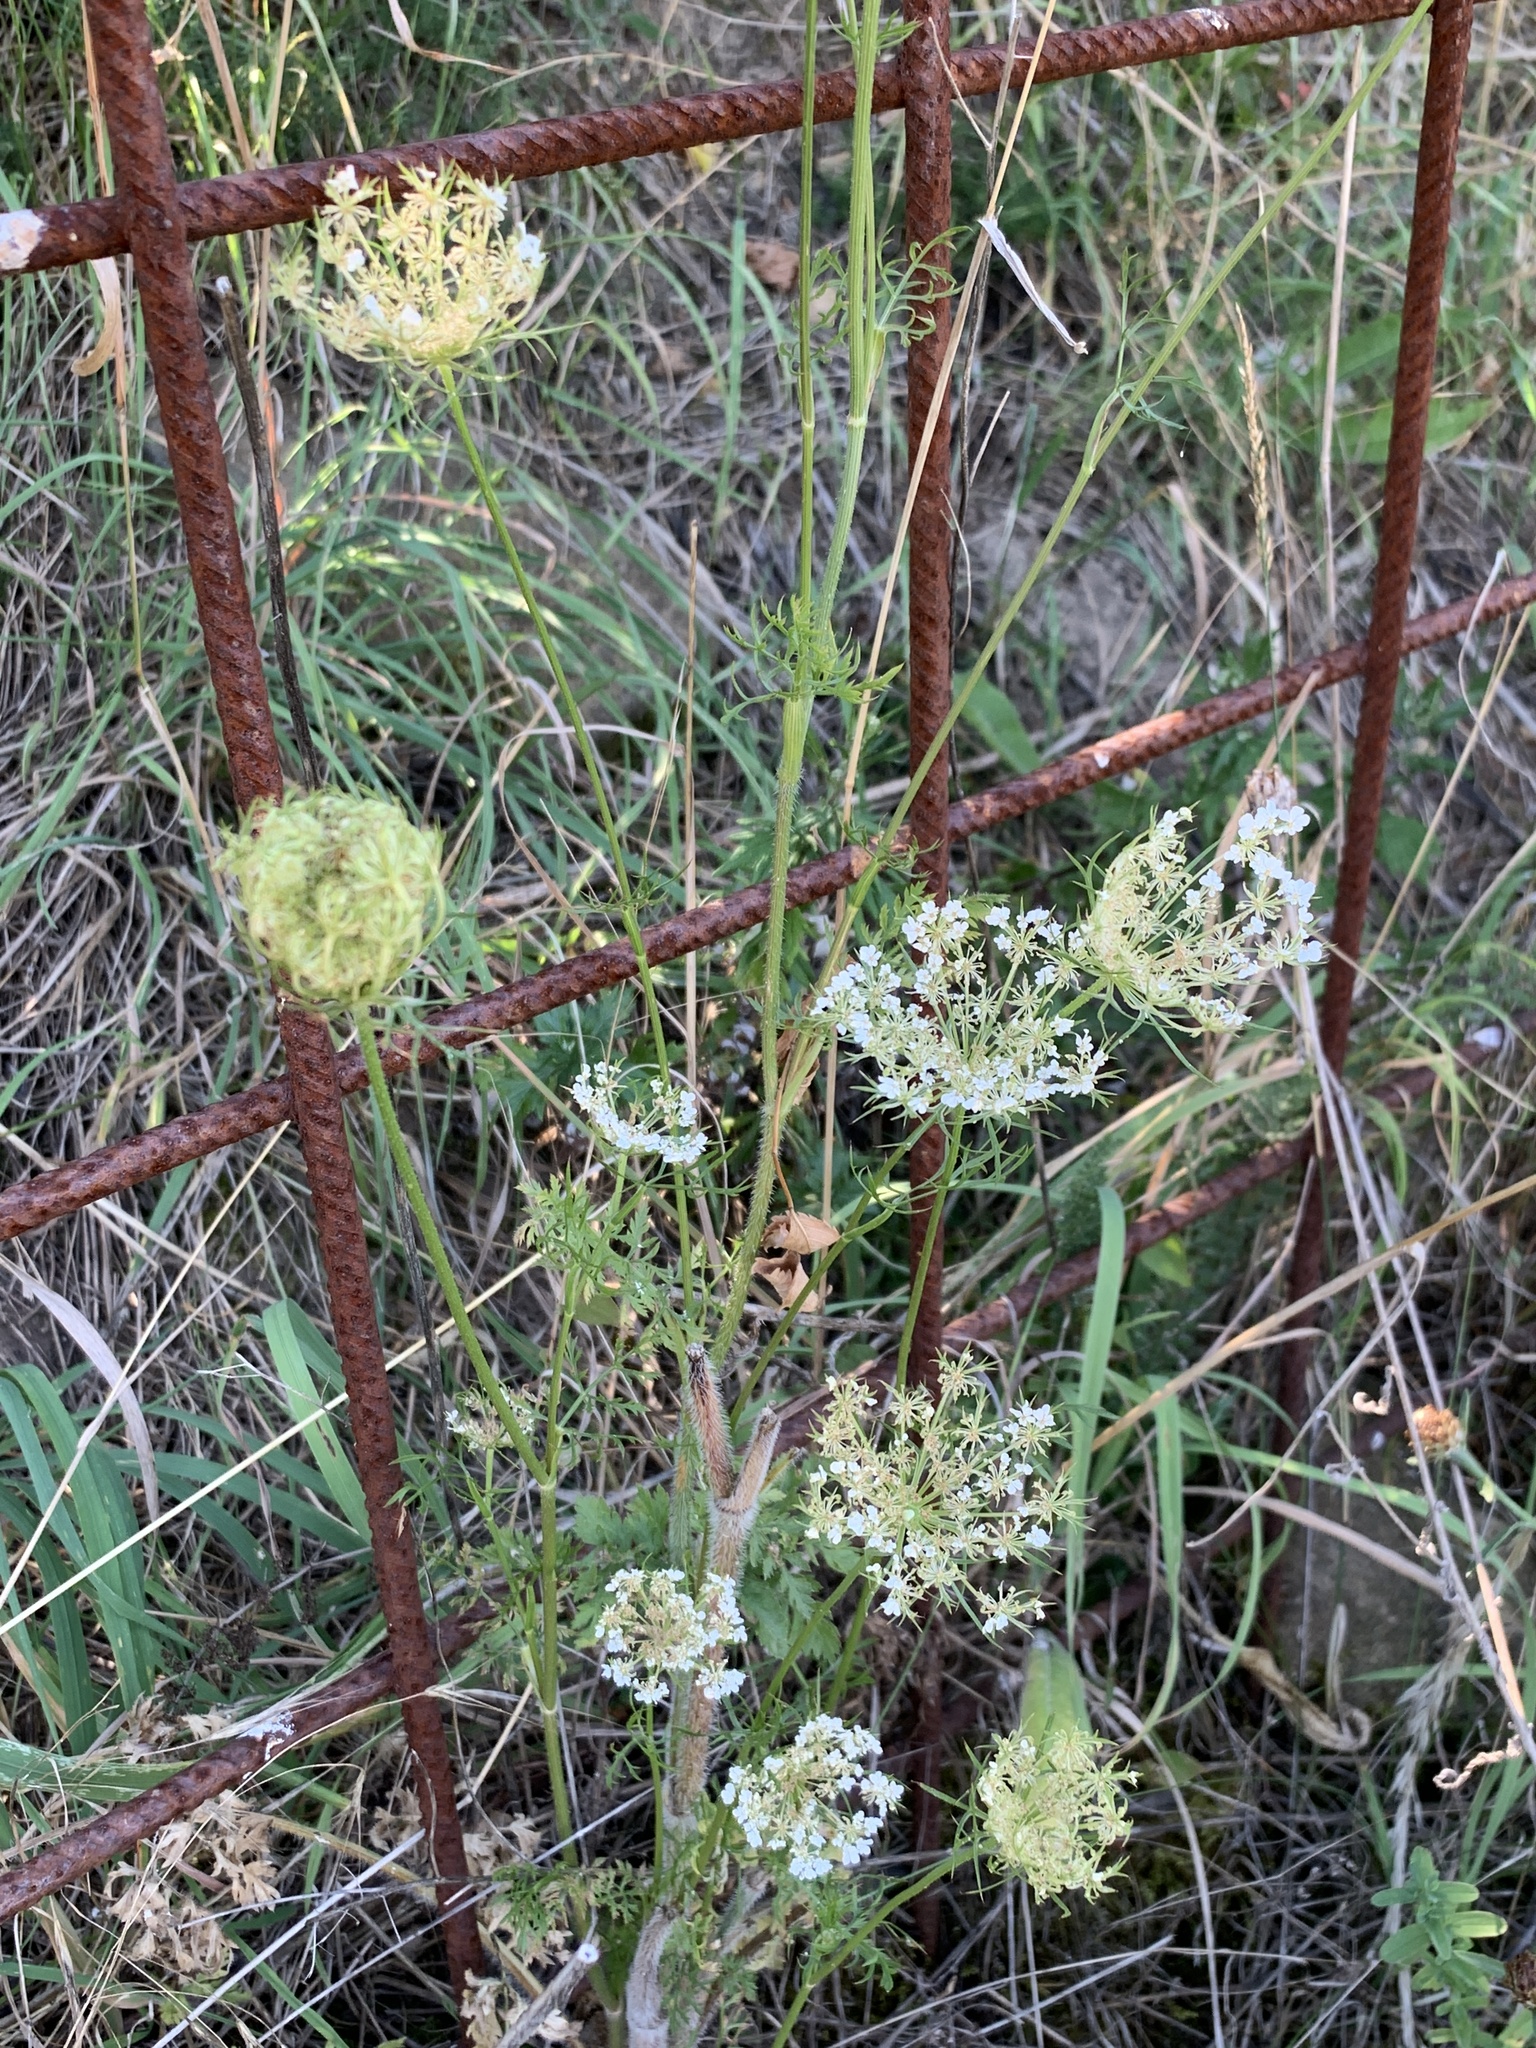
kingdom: Plantae
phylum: Tracheophyta
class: Magnoliopsida
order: Apiales
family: Apiaceae
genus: Daucus
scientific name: Daucus carota
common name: Wild carrot
